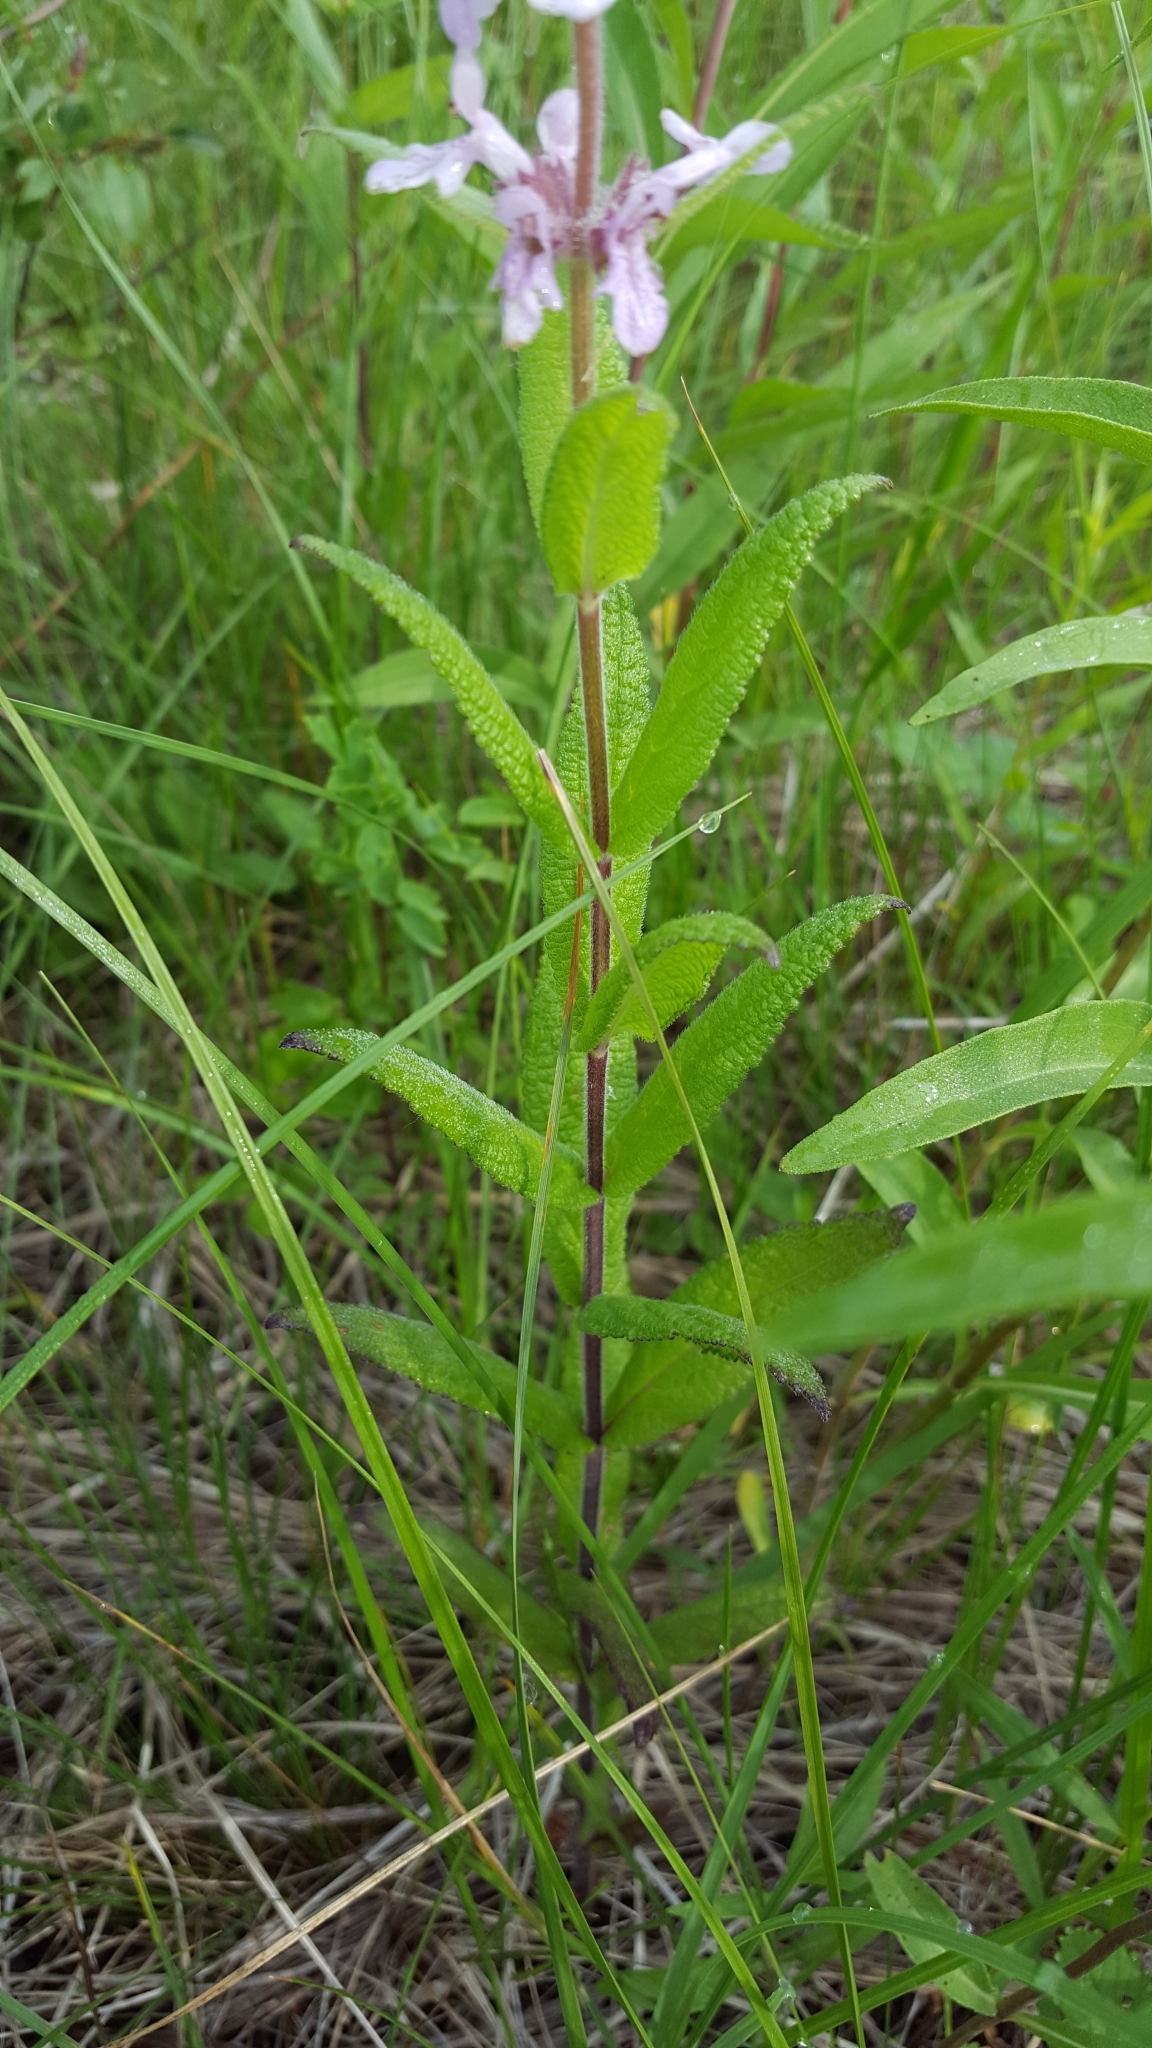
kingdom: Plantae
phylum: Tracheophyta
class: Magnoliopsida
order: Lamiales
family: Lamiaceae
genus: Stachys
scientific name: Stachys palustris
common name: Marsh woundwort
